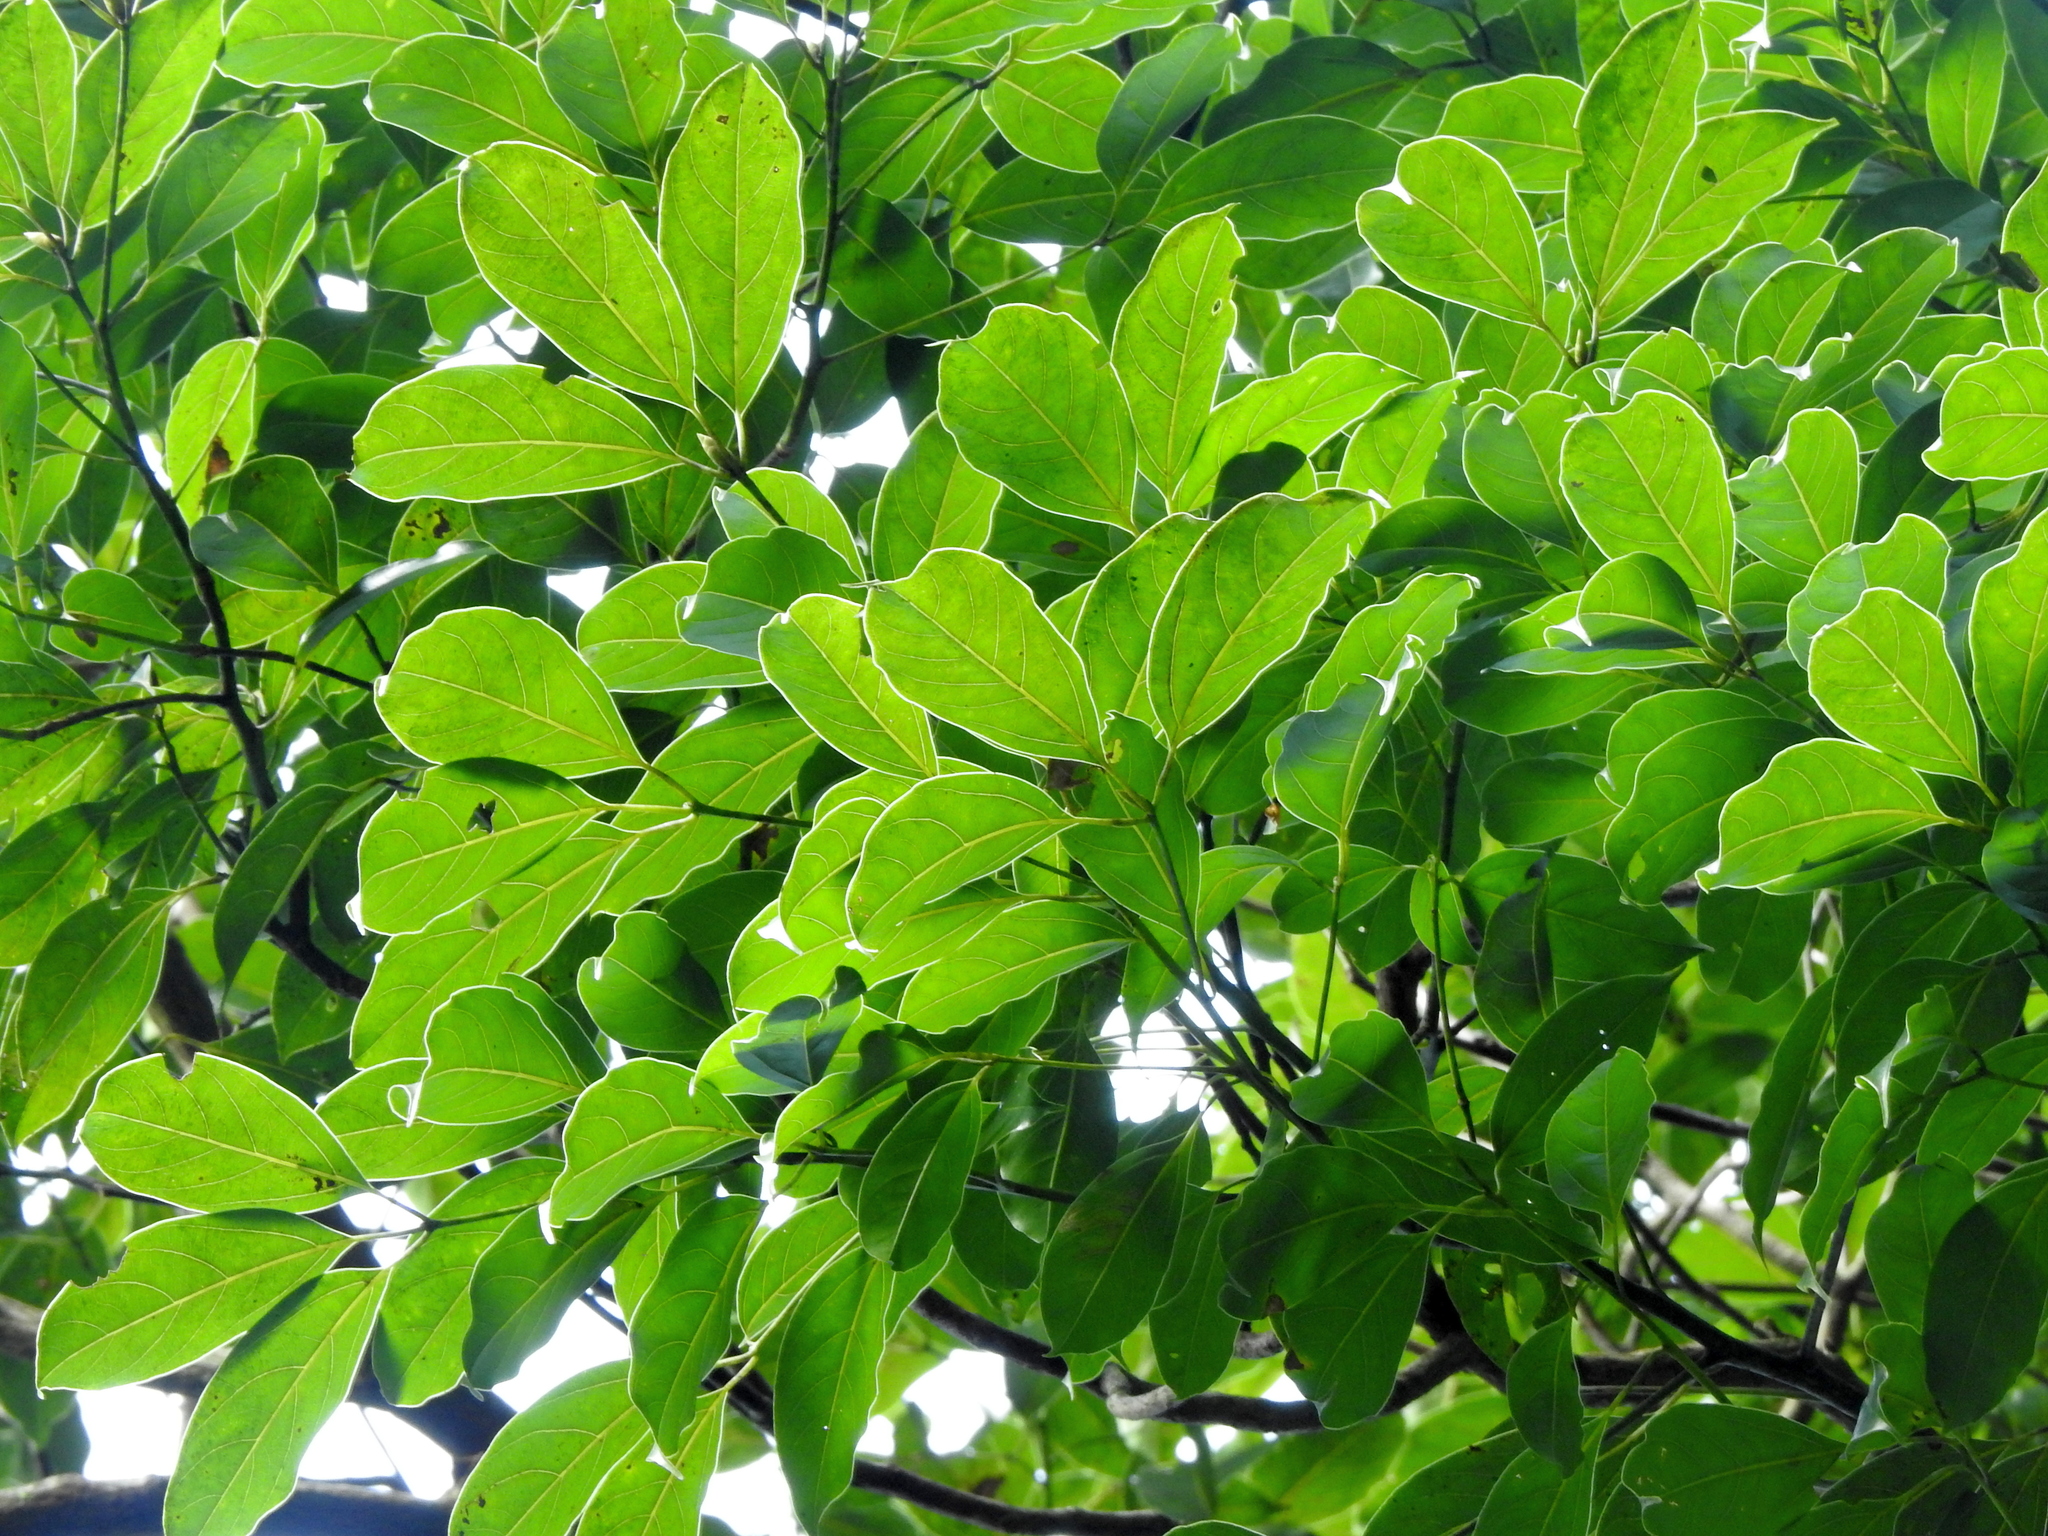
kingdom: Plantae
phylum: Tracheophyta
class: Magnoliopsida
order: Laurales
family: Lauraceae
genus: Cinnamomum
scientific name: Cinnamomum micranthum
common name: Chinese-sassafras
